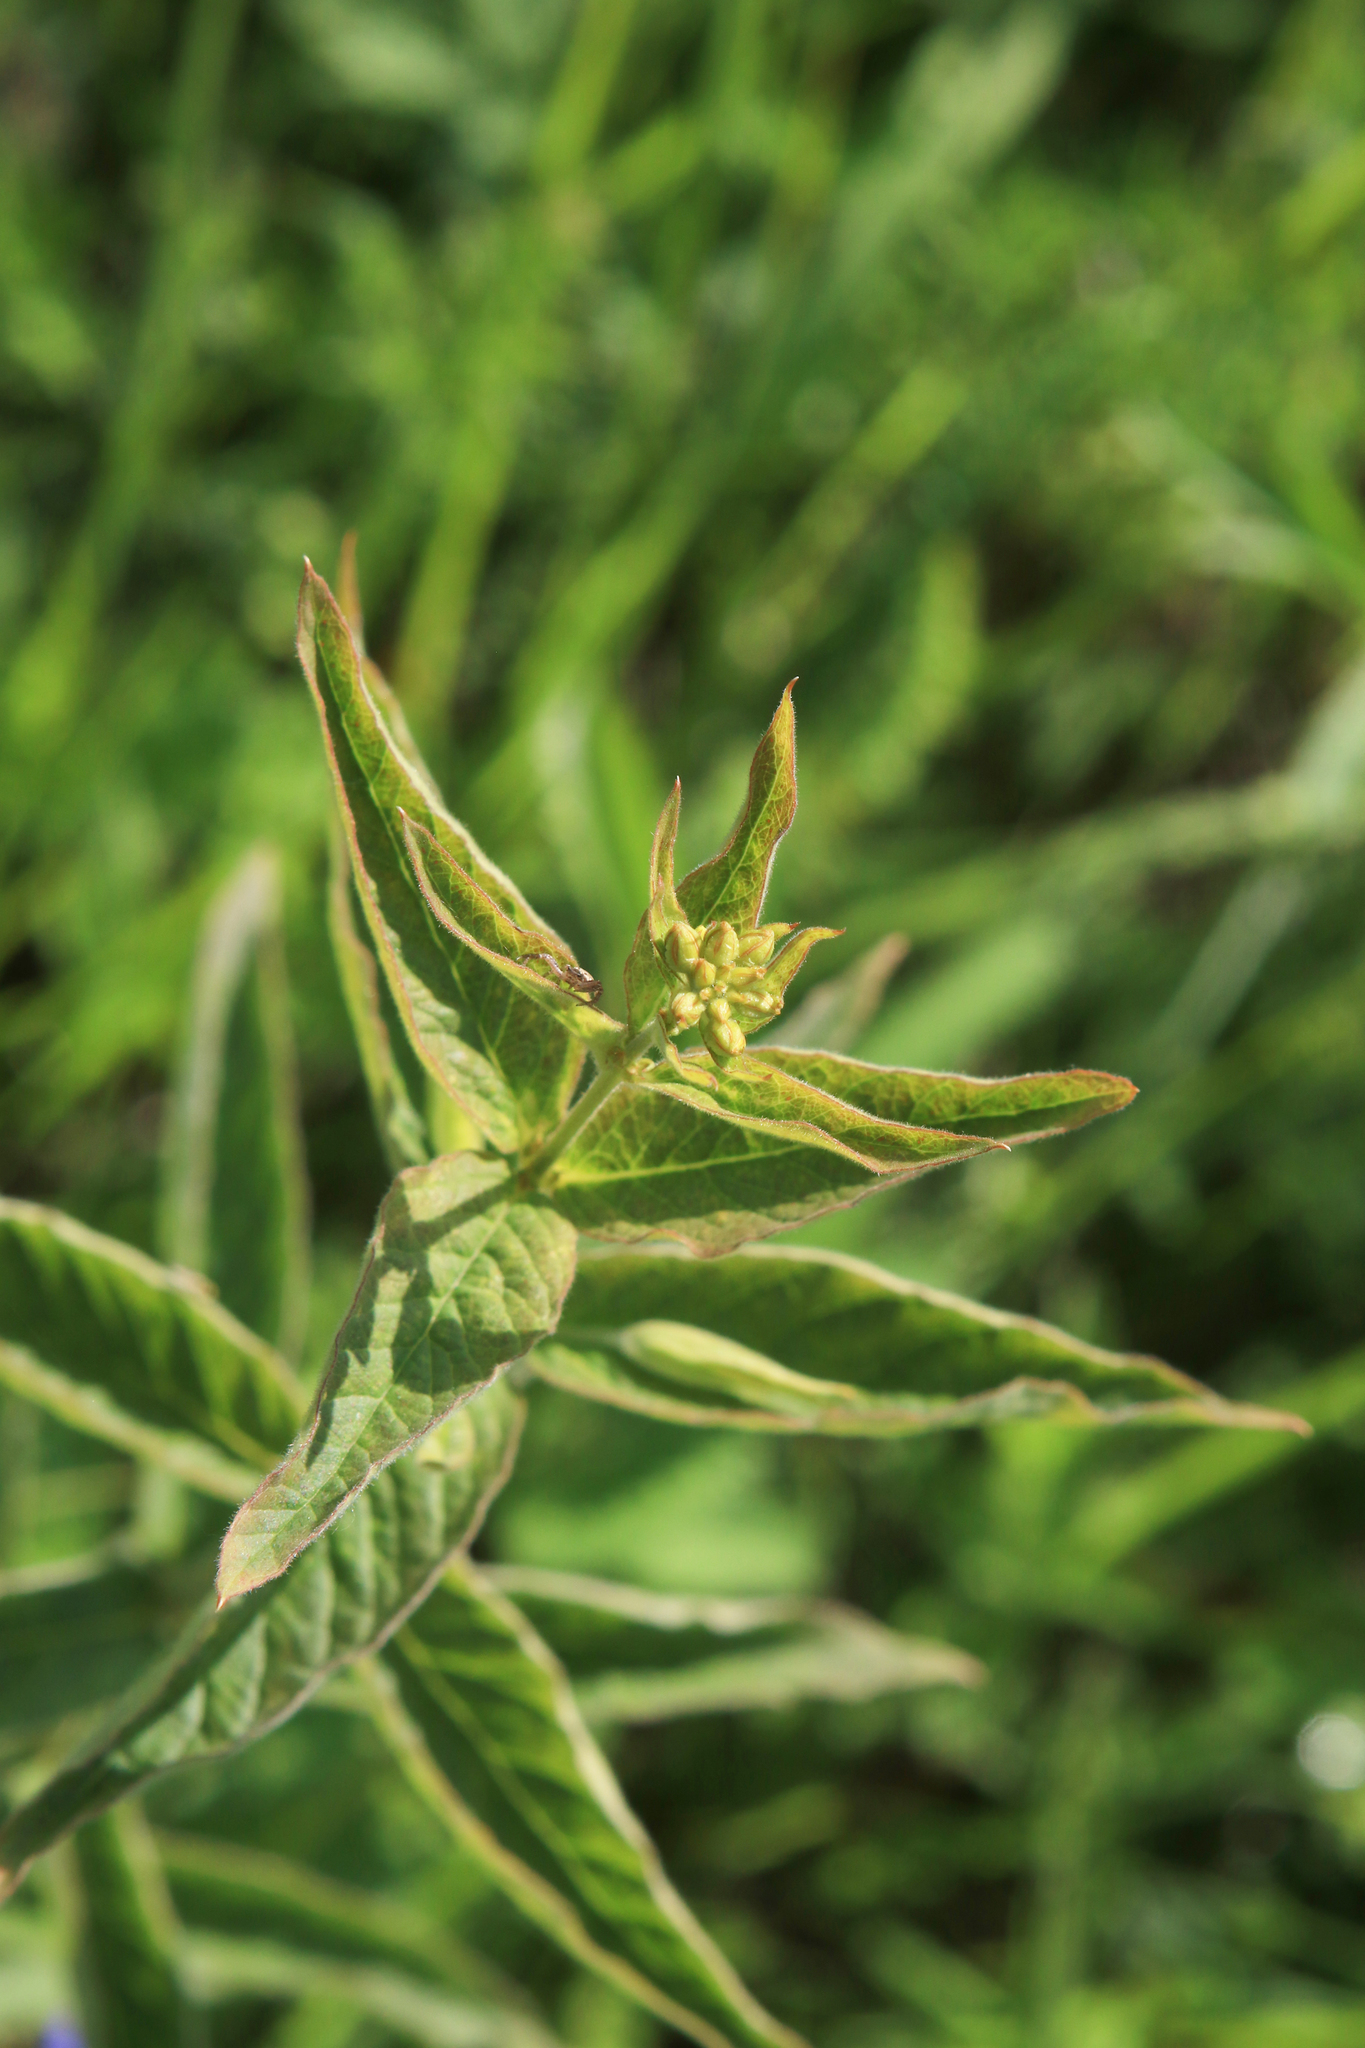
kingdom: Plantae
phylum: Tracheophyta
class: Magnoliopsida
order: Ericales
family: Primulaceae
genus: Lysimachia
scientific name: Lysimachia vulgaris
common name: Yellow loosestrife
